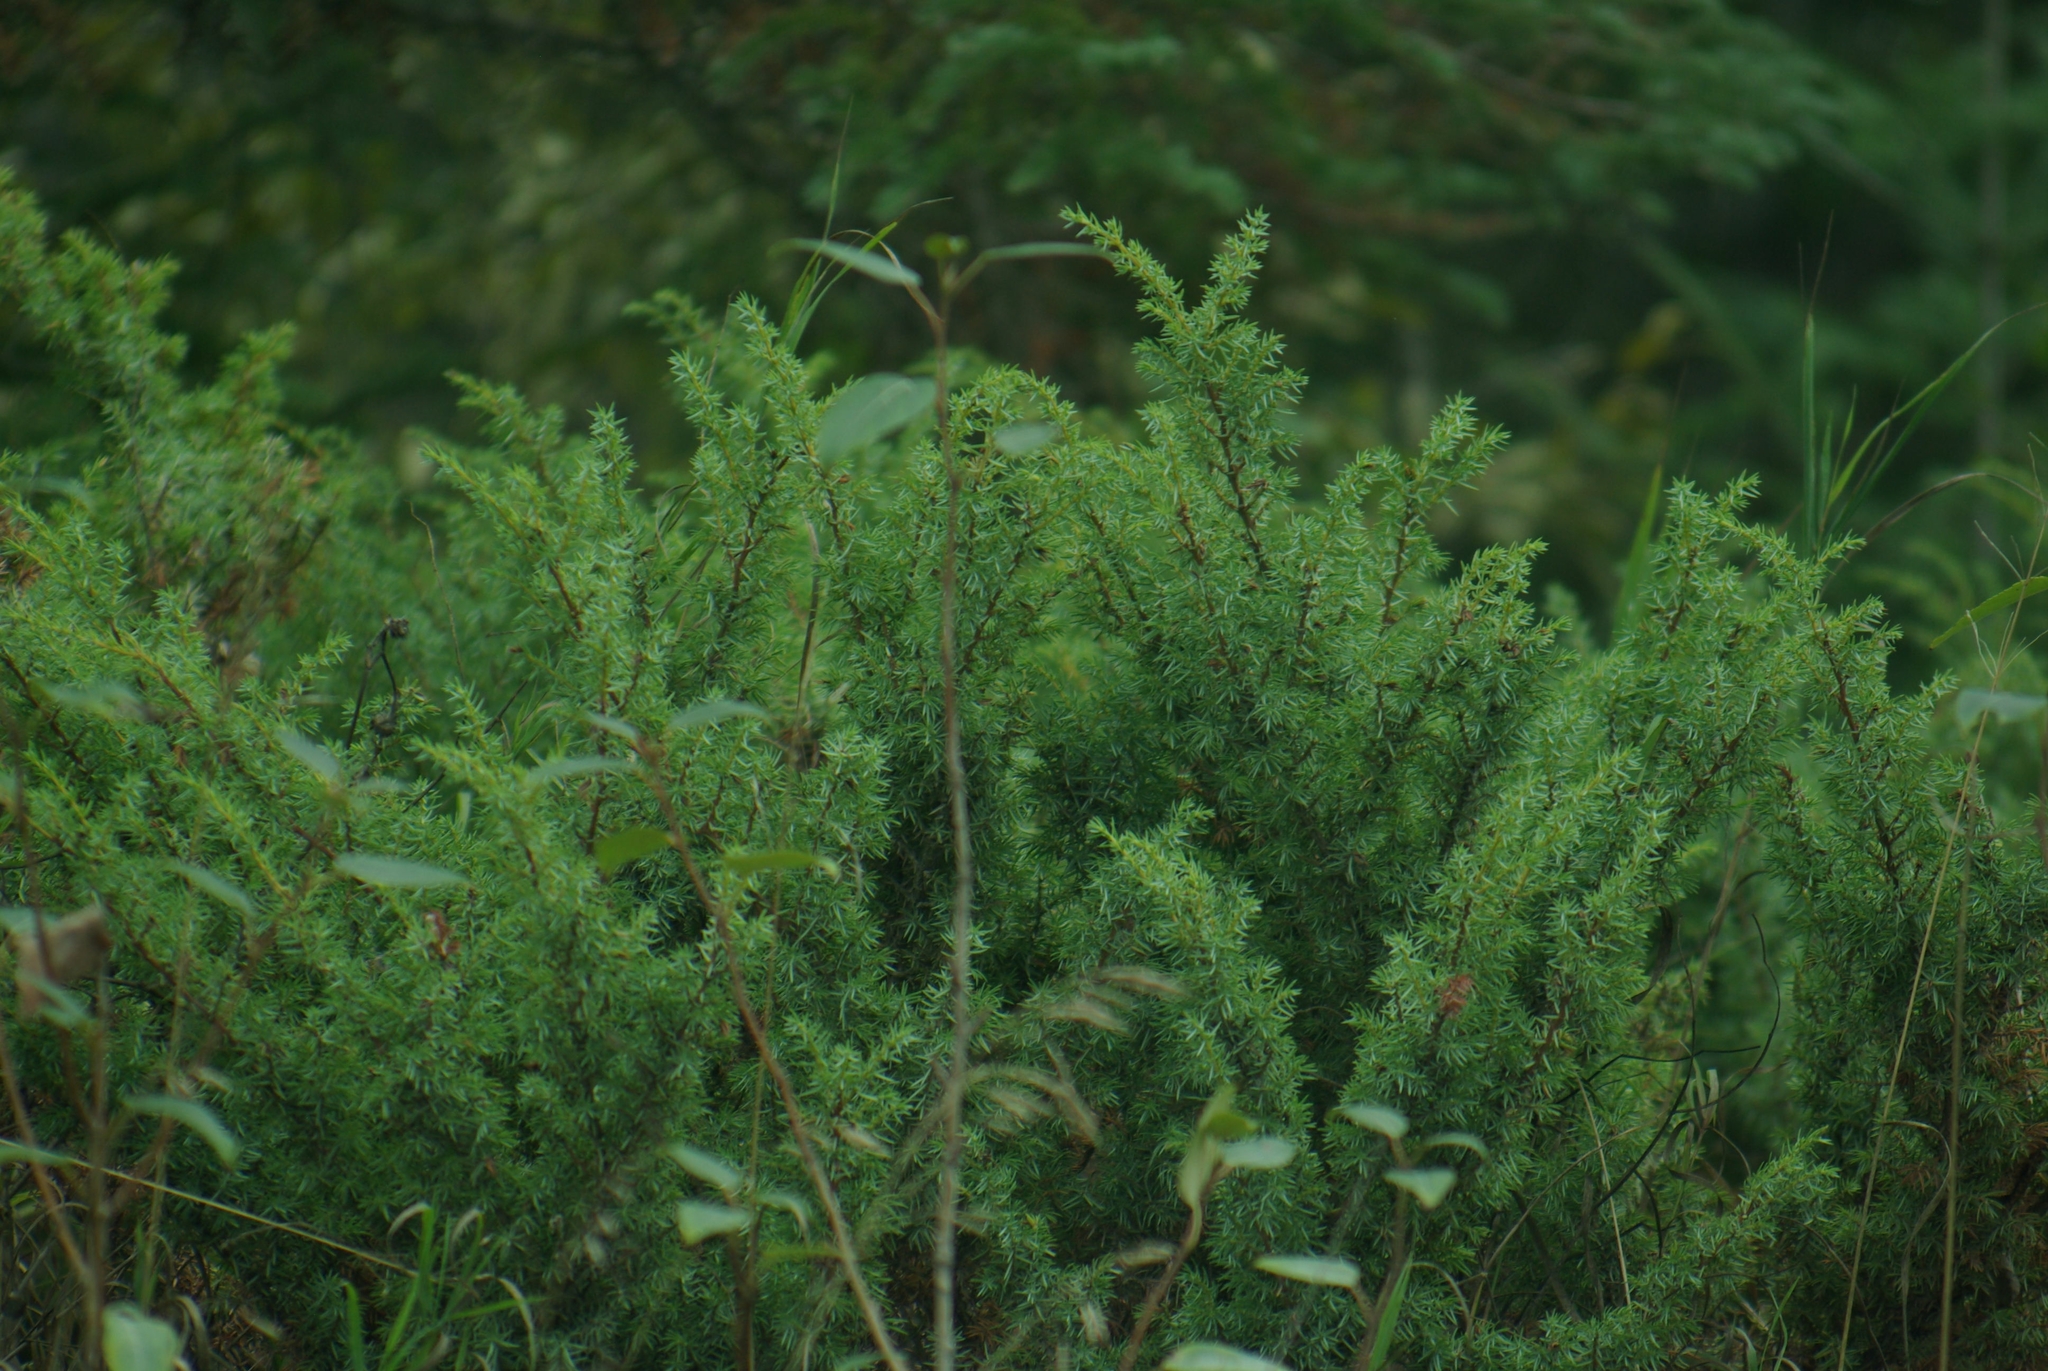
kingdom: Plantae
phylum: Tracheophyta
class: Pinopsida
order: Pinales
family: Cupressaceae
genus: Juniperus
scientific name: Juniperus communis
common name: Common juniper
